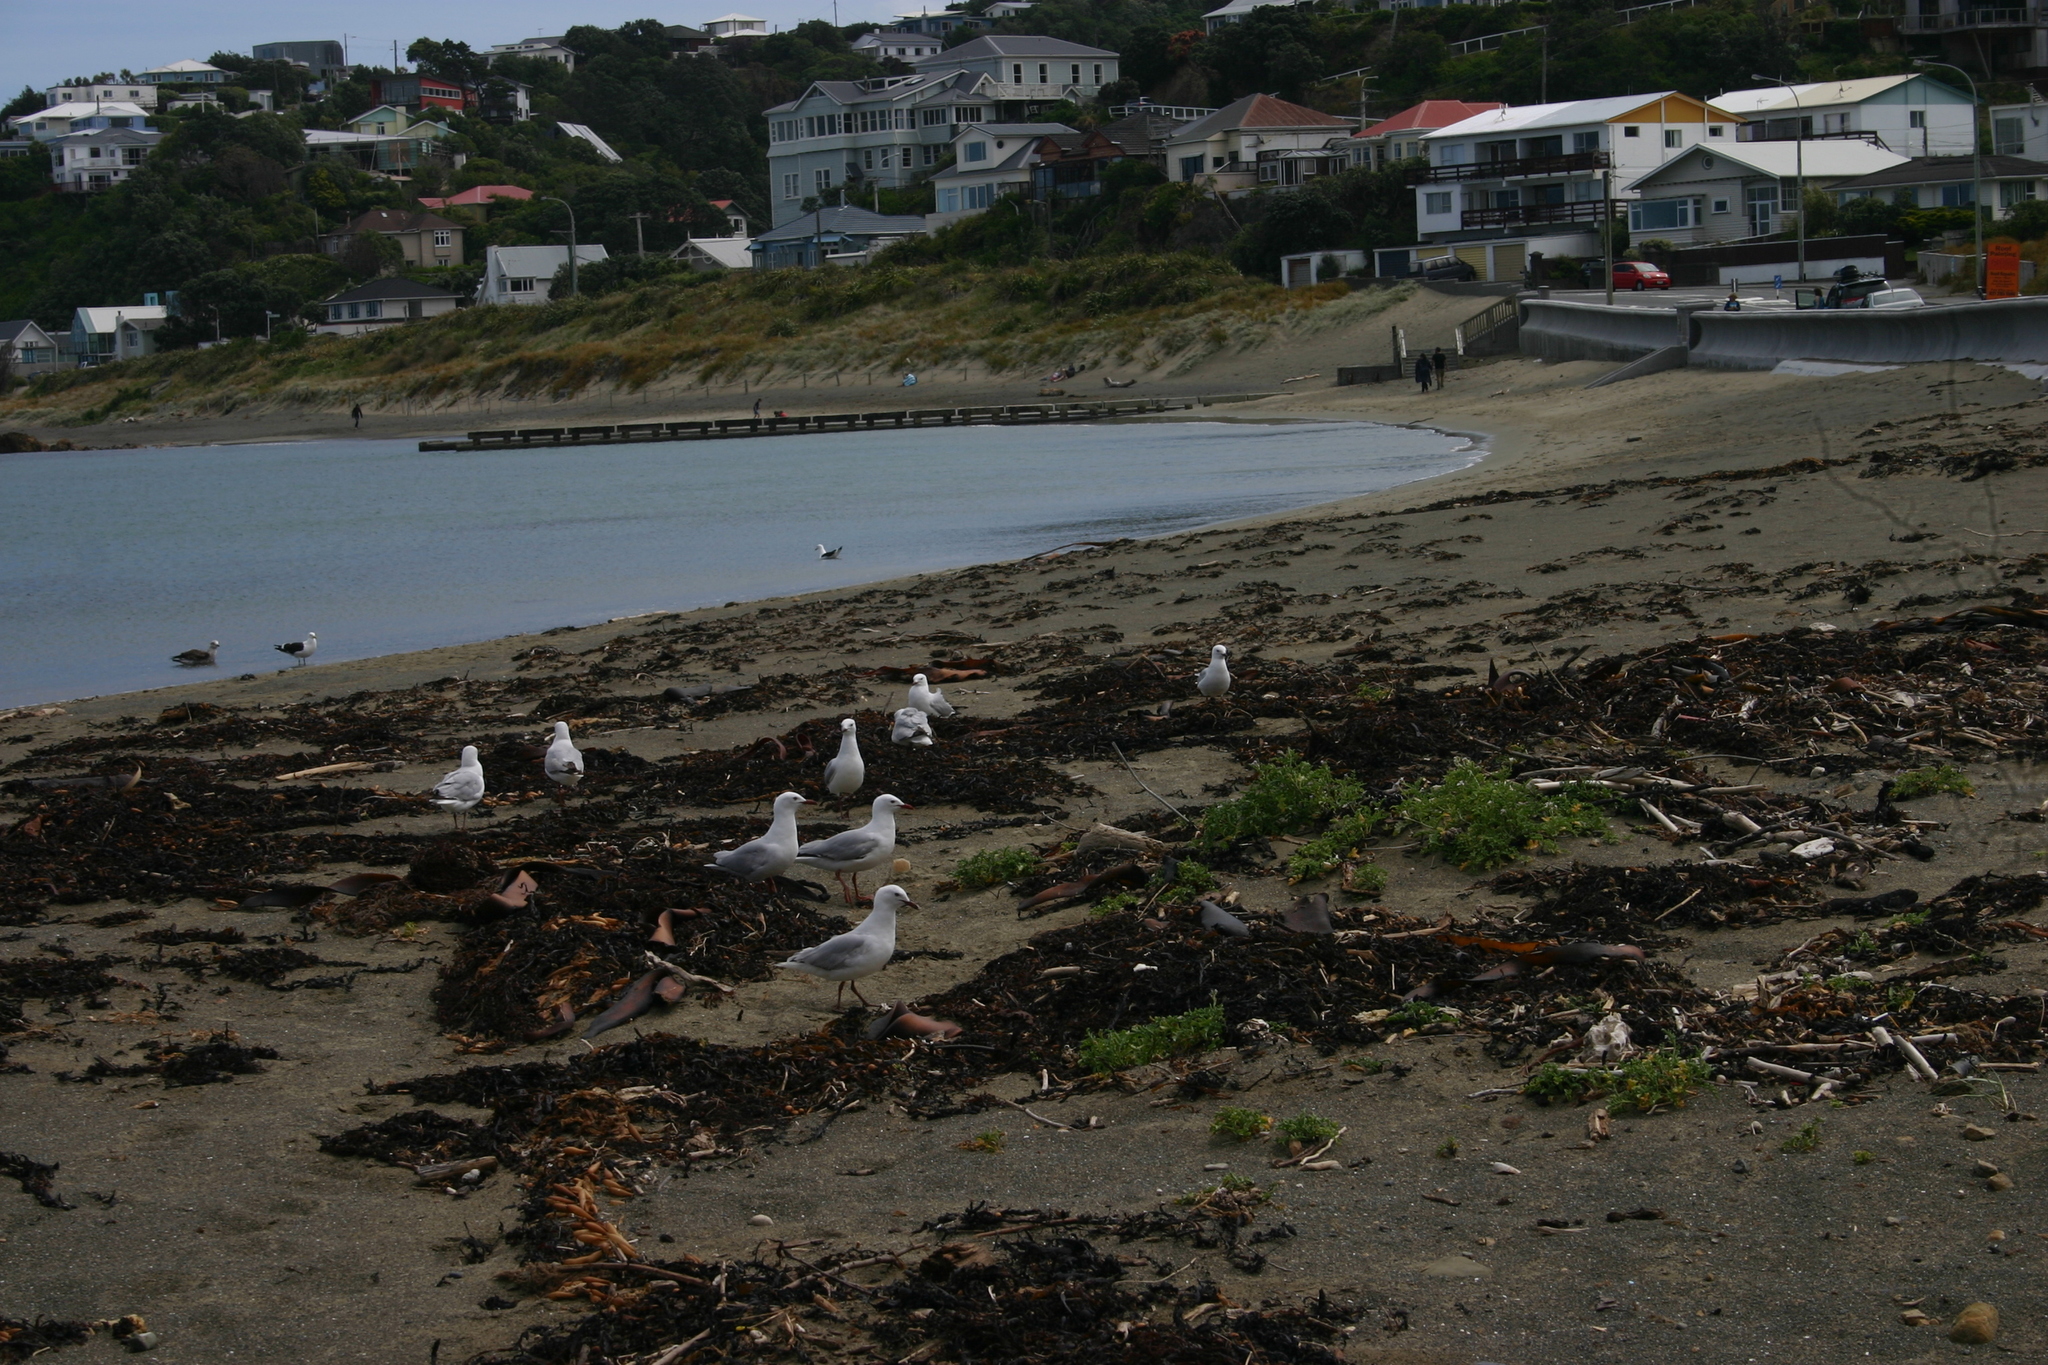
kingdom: Animalia
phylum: Chordata
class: Aves
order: Charadriiformes
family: Laridae
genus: Chroicocephalus
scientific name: Chroicocephalus novaehollandiae
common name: Silver gull
